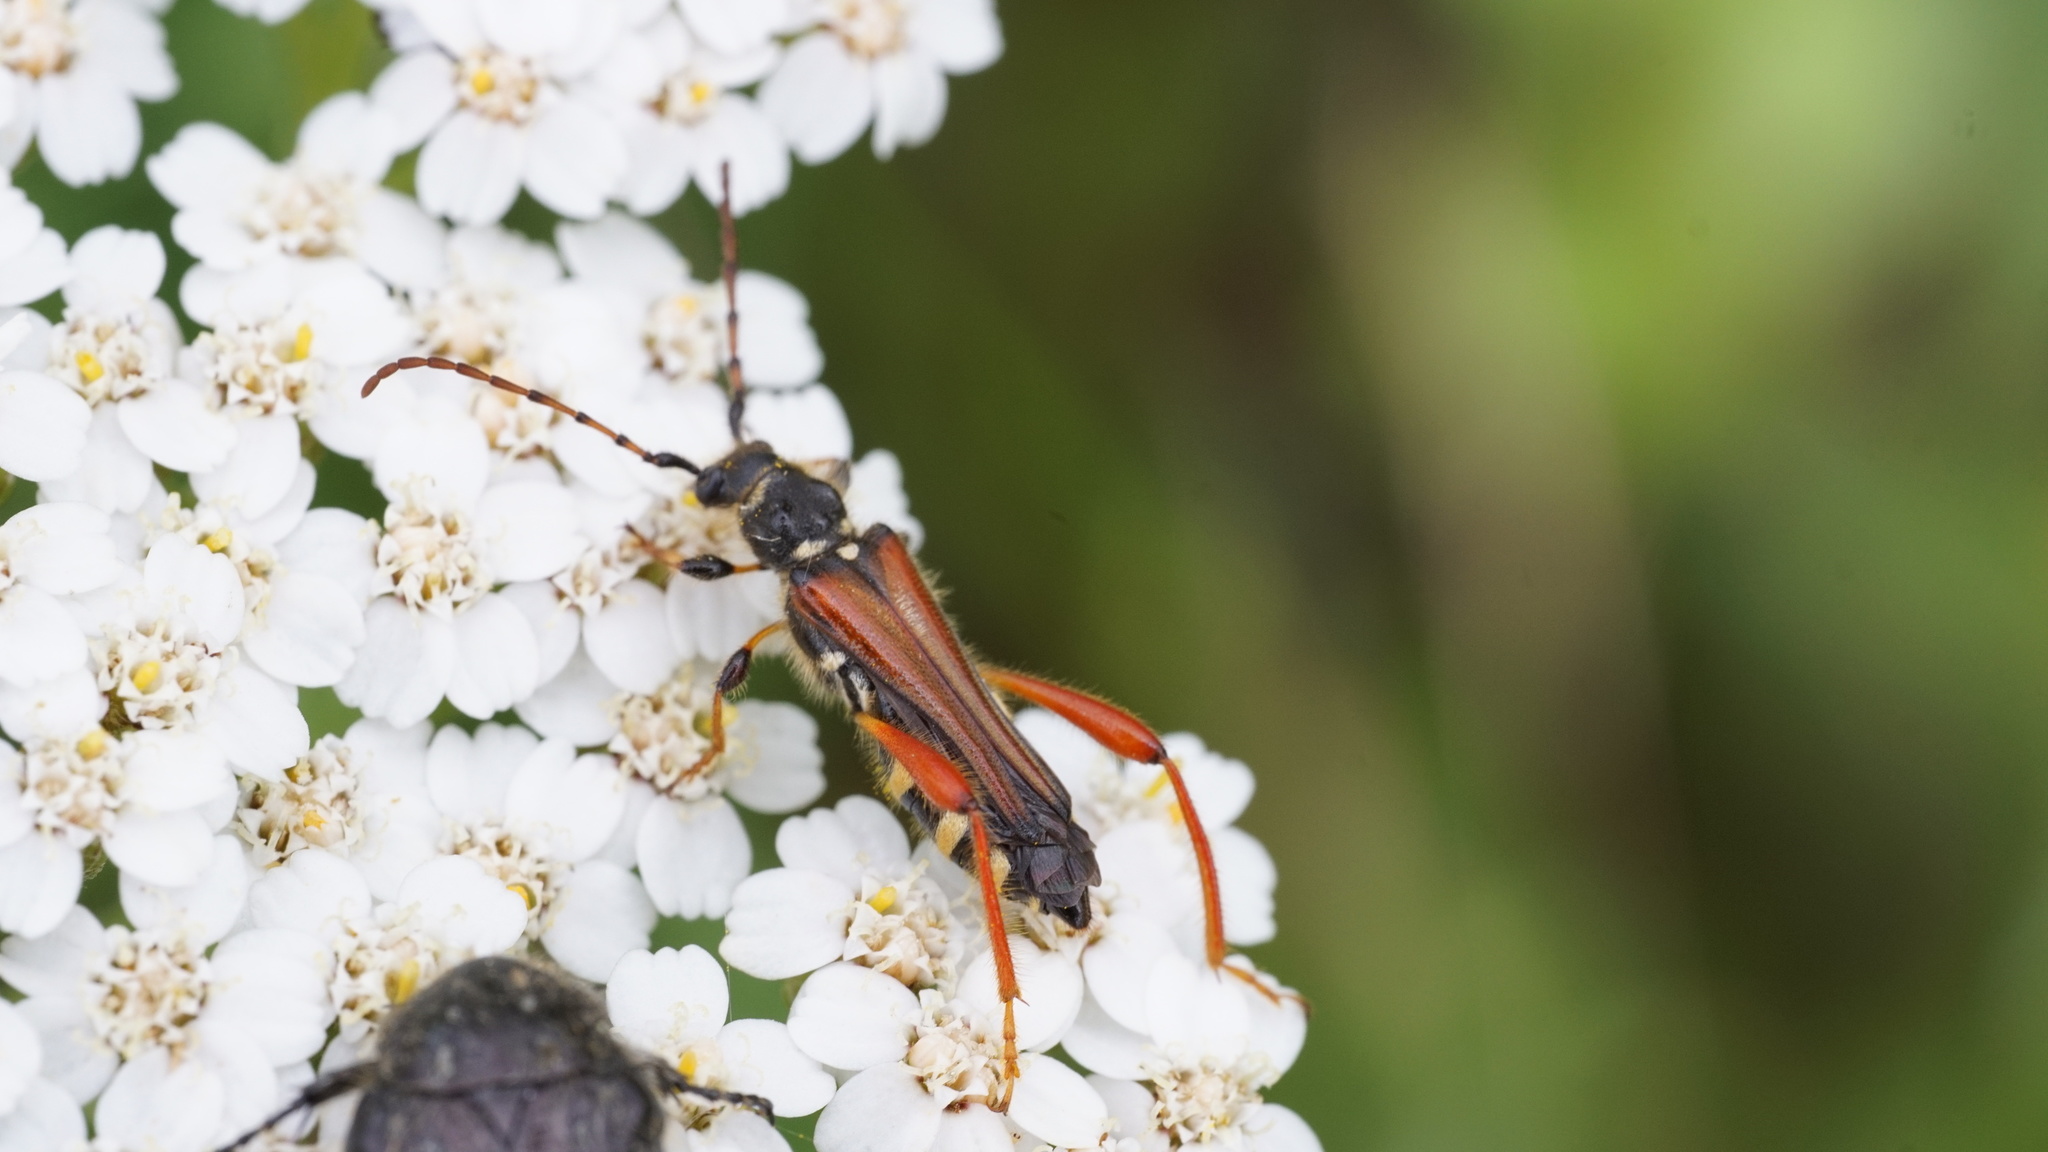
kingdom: Animalia
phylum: Arthropoda
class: Insecta
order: Coleoptera
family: Cerambycidae
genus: Stenopterus
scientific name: Stenopterus rufus
